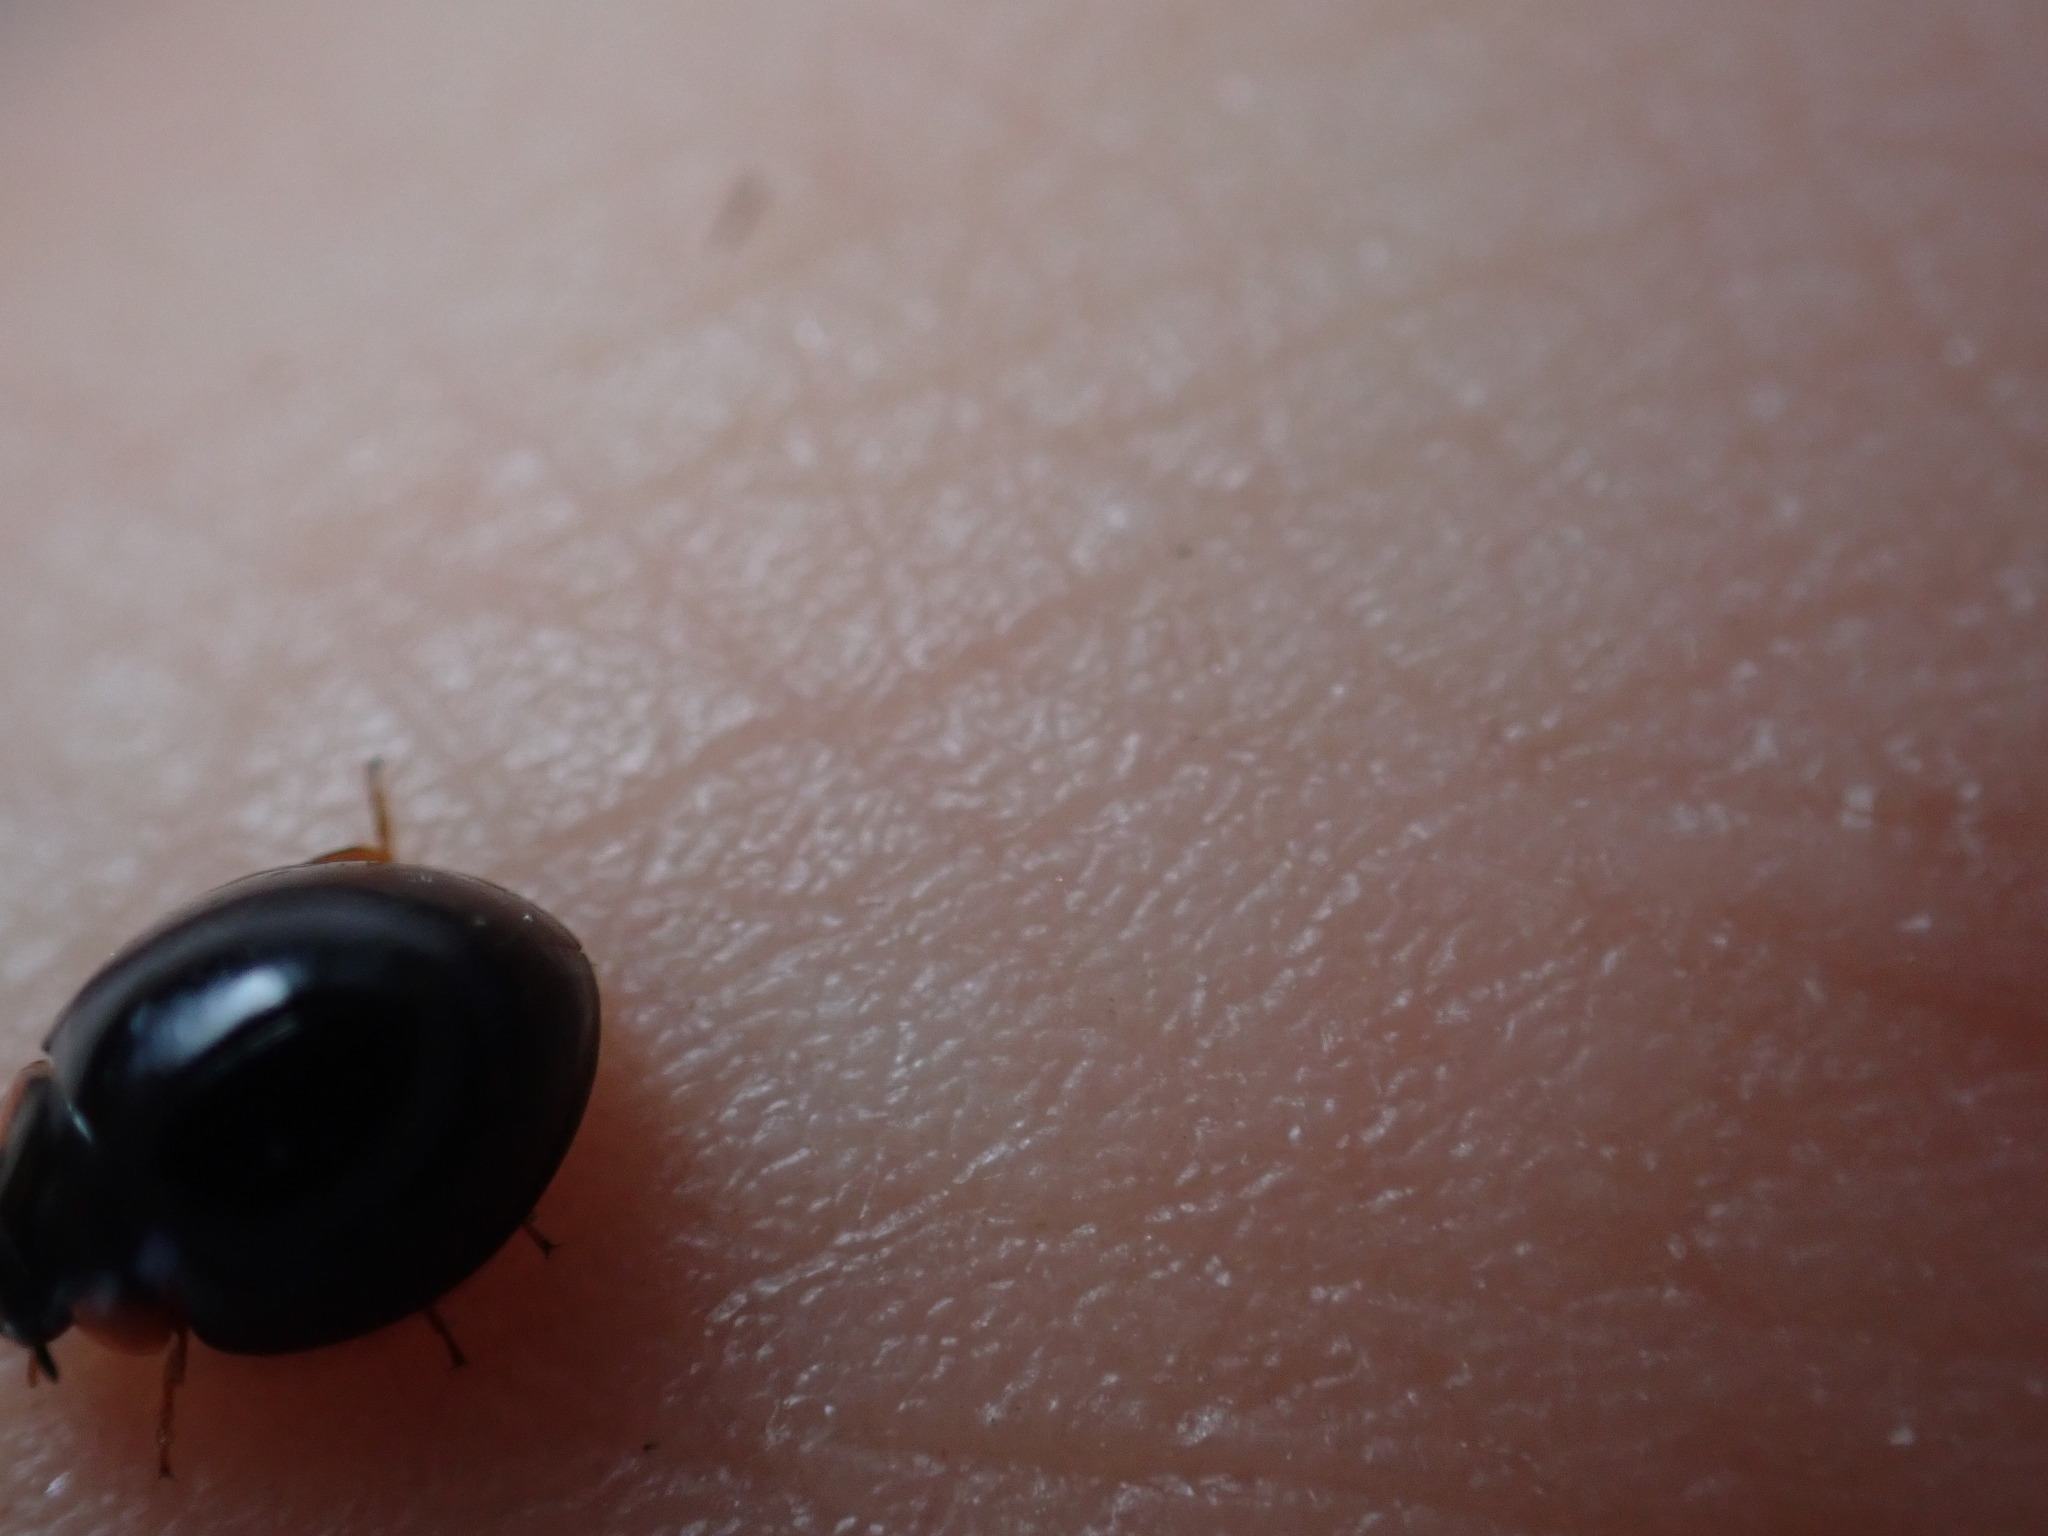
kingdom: Animalia
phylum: Arthropoda
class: Insecta
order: Coleoptera
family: Coccinellidae
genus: Parexochomus
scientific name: Parexochomus nigromaculatus
